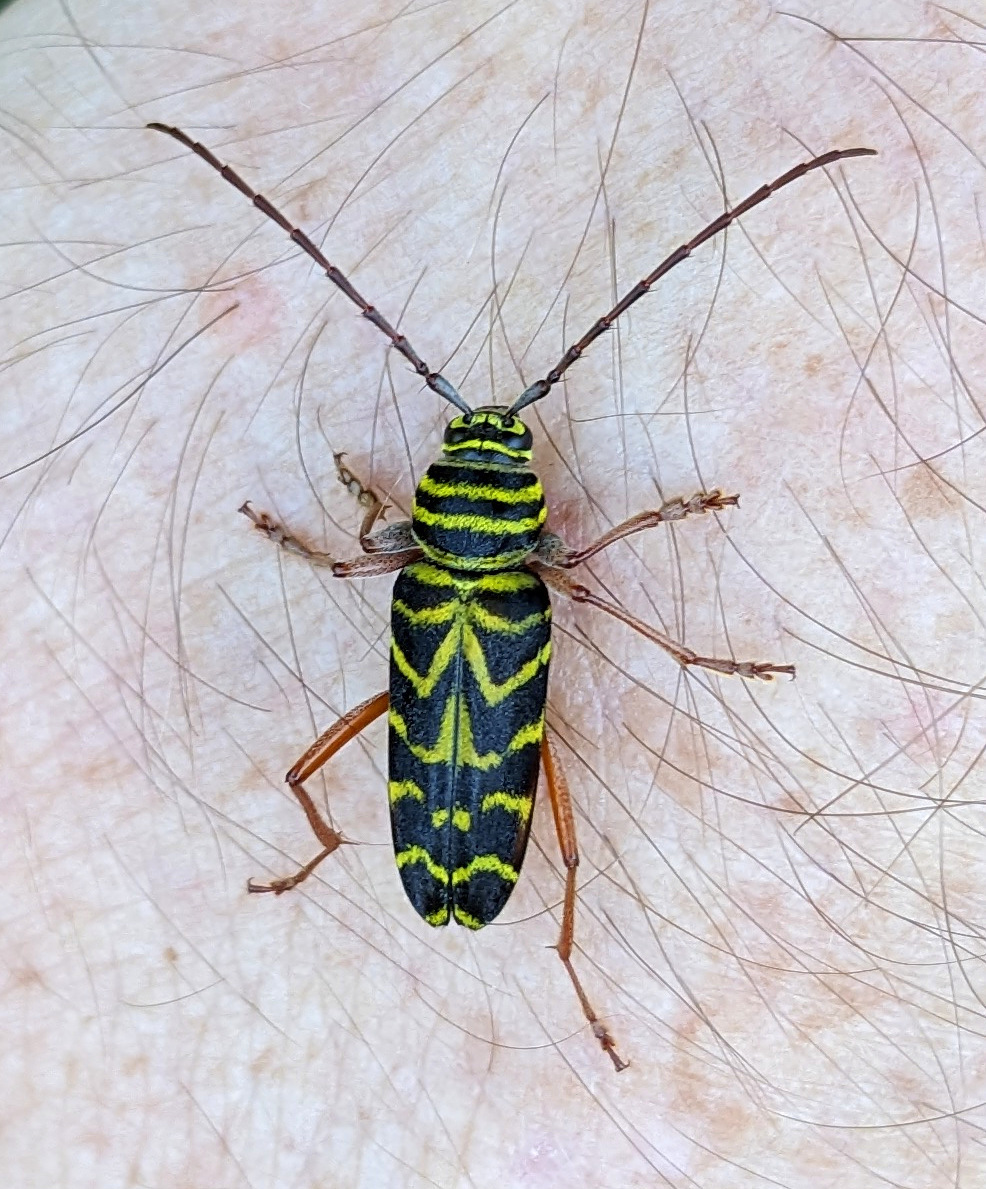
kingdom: Animalia
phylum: Arthropoda
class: Insecta
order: Coleoptera
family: Cerambycidae
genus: Megacyllene
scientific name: Megacyllene robiniae
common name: Locust borer
